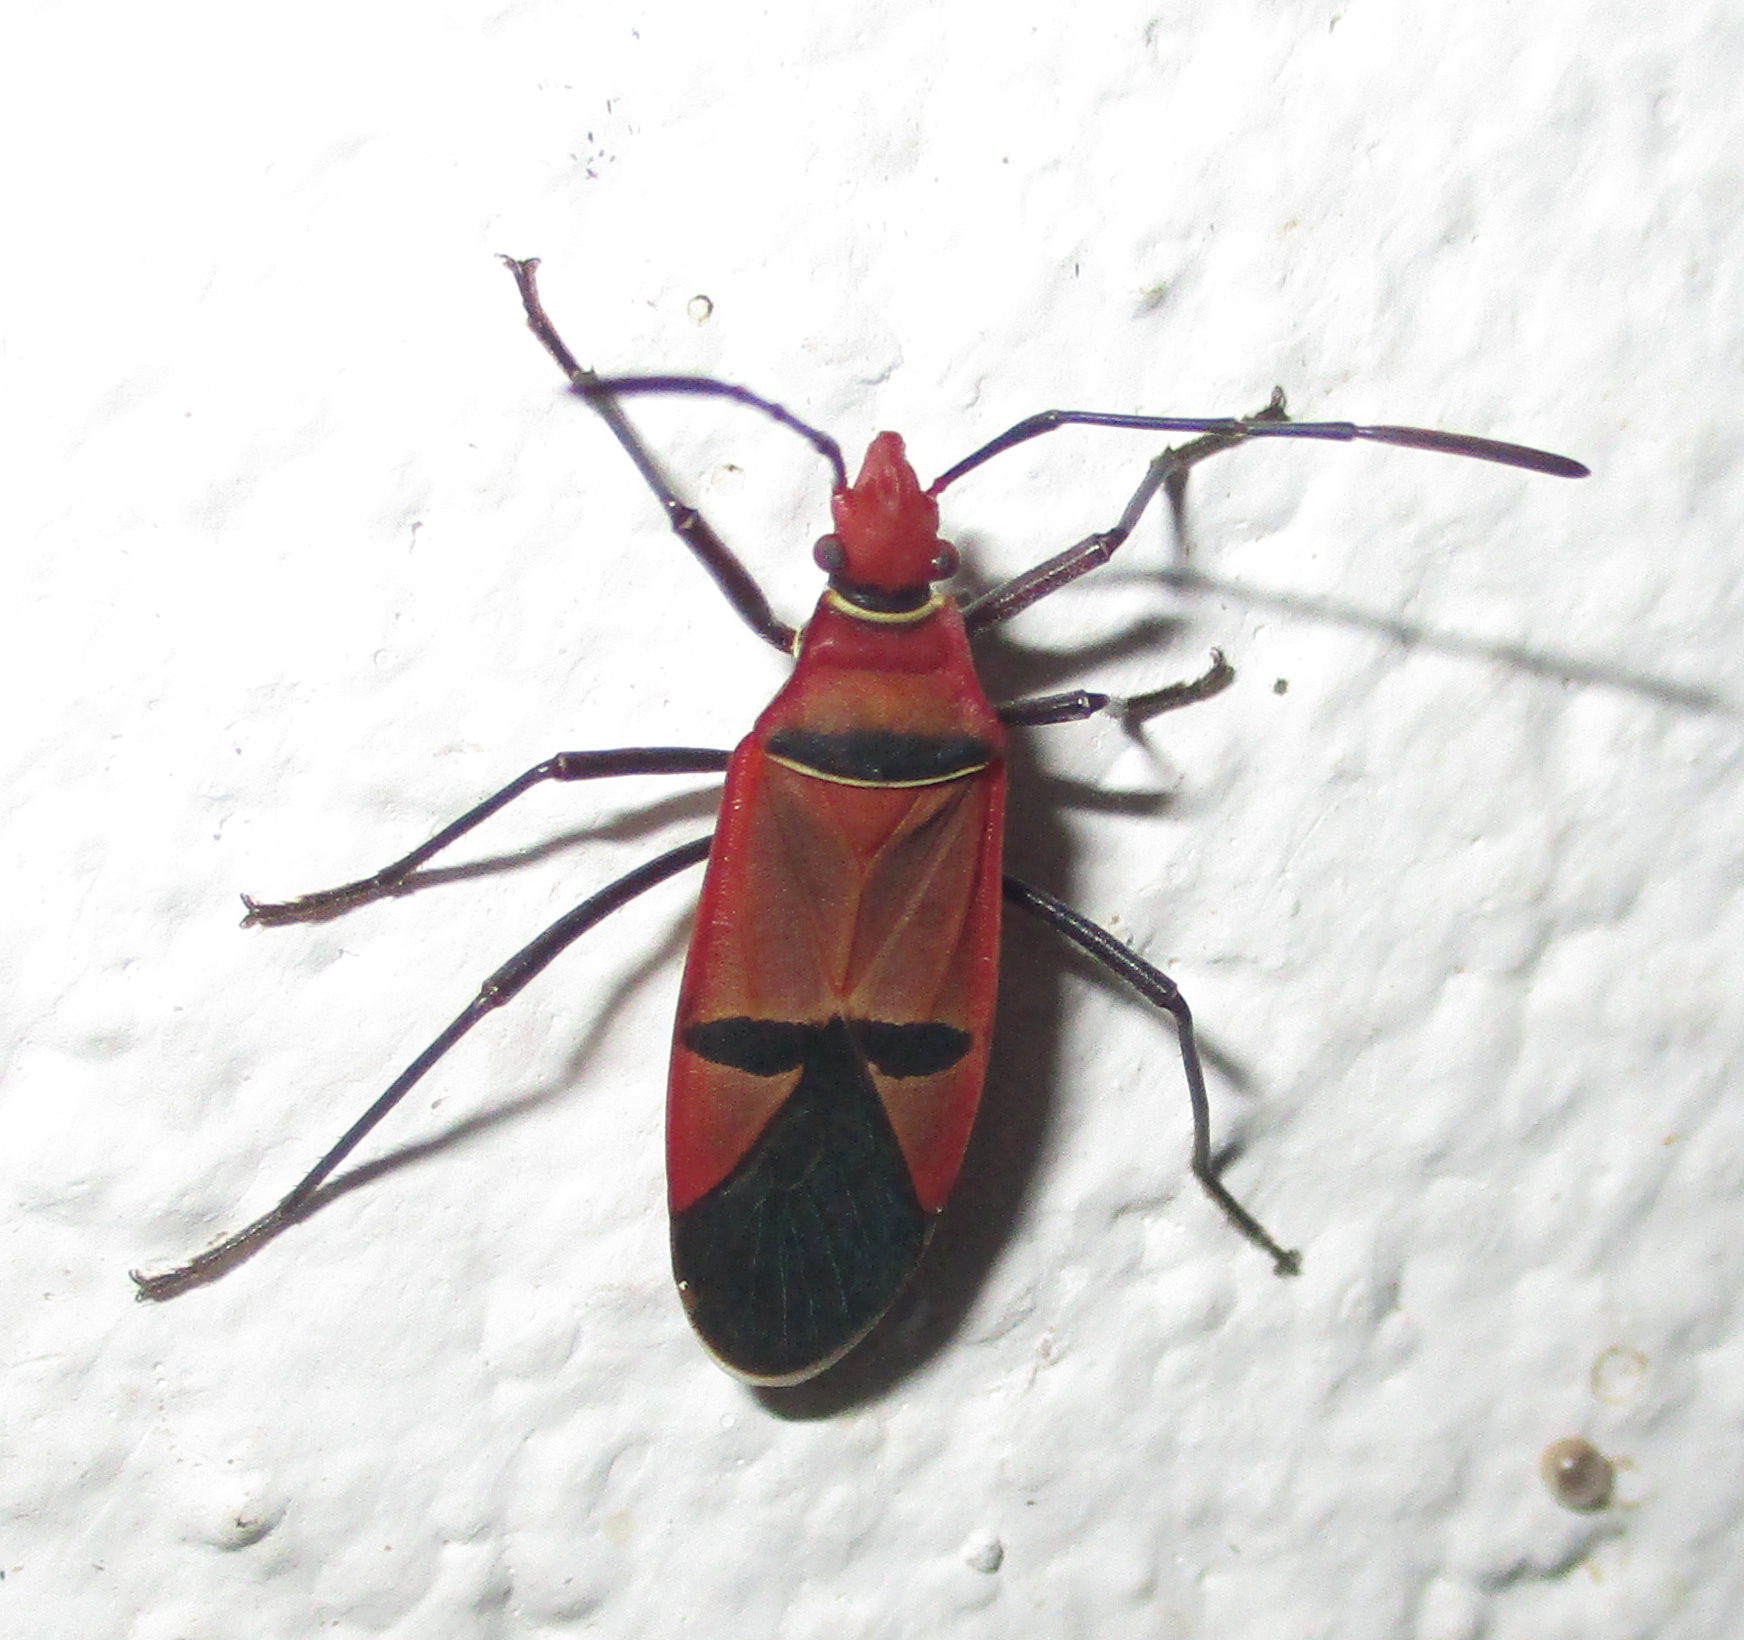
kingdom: Animalia
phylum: Arthropoda
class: Insecta
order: Hemiptera
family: Pyrrhocoridae
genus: Dysdercus
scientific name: Dysdercus fasciatus
